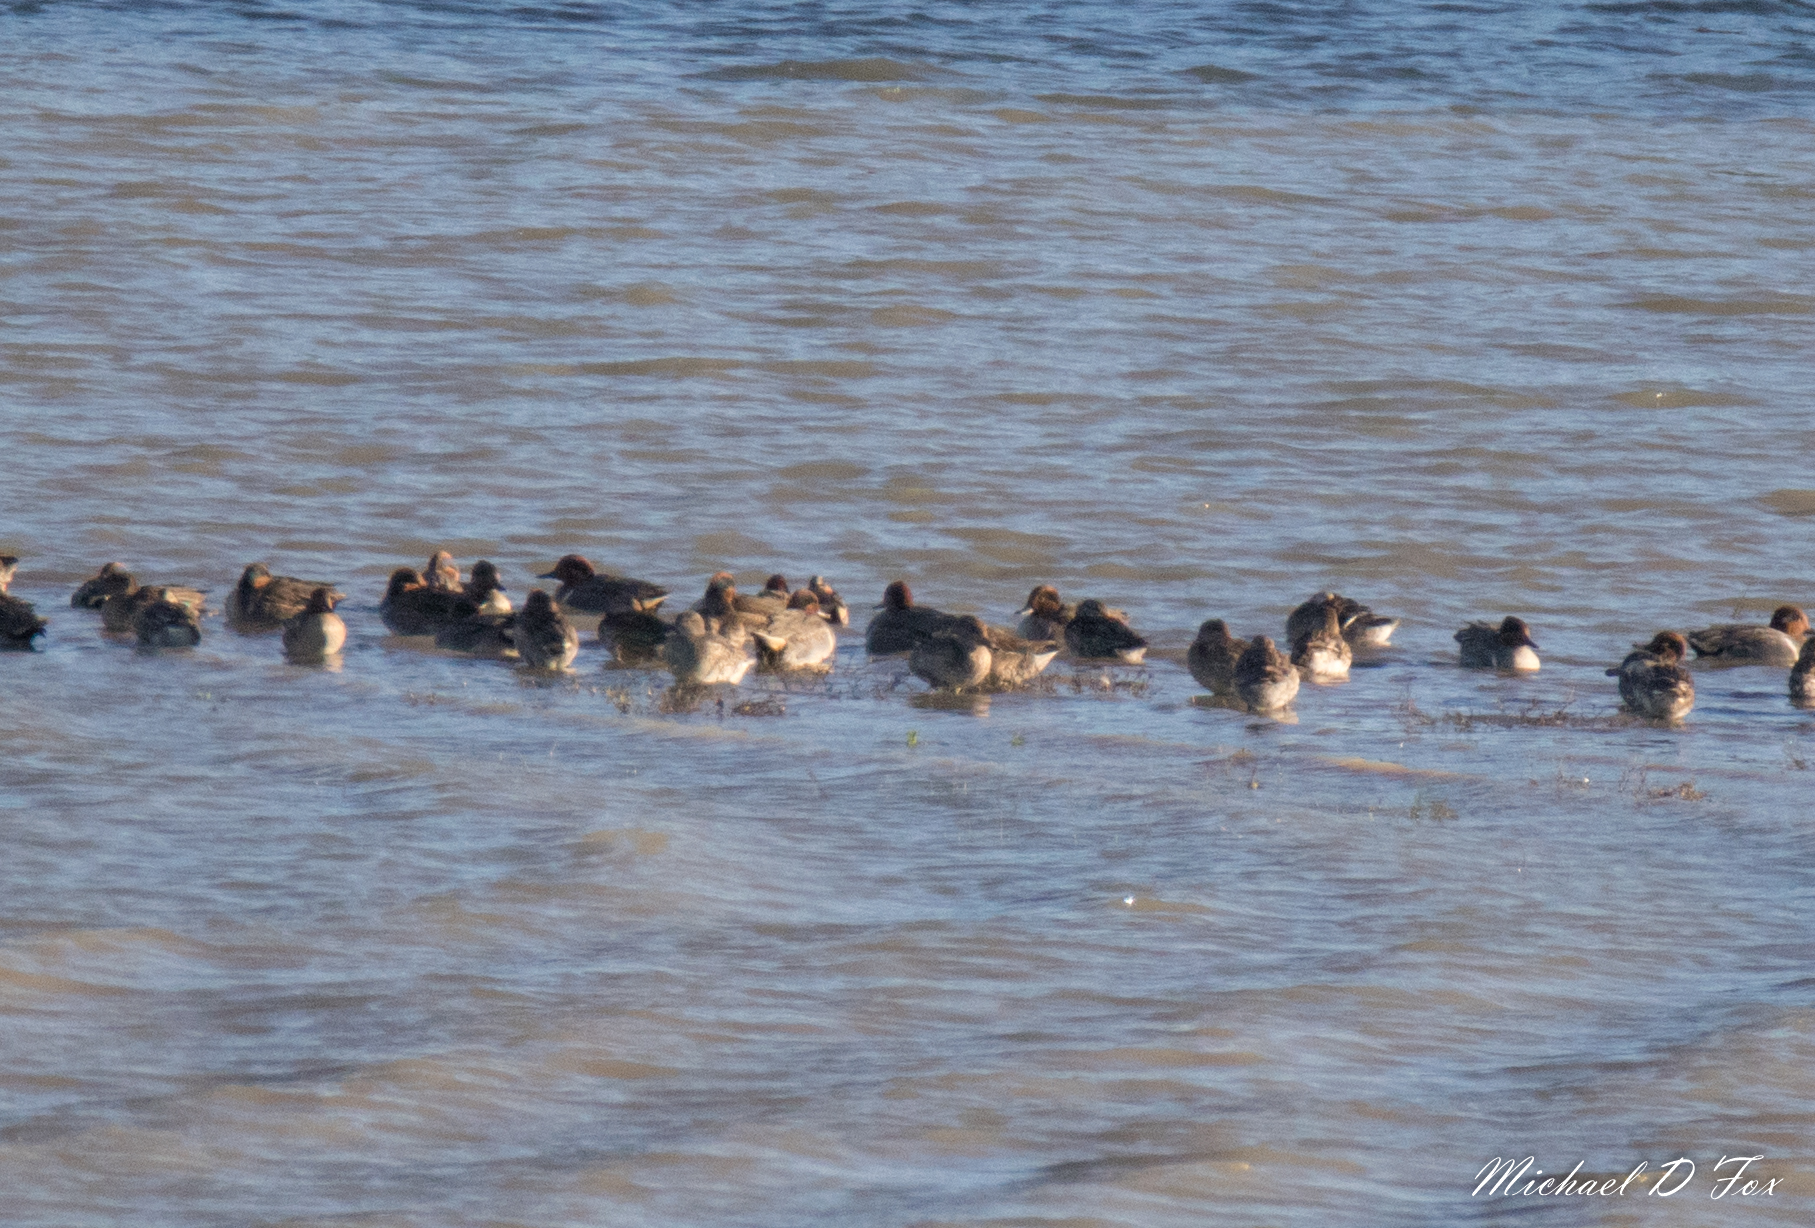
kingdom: Animalia
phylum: Chordata
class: Aves
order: Anseriformes
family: Anatidae
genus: Anas
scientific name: Anas crecca
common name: Eurasian teal
